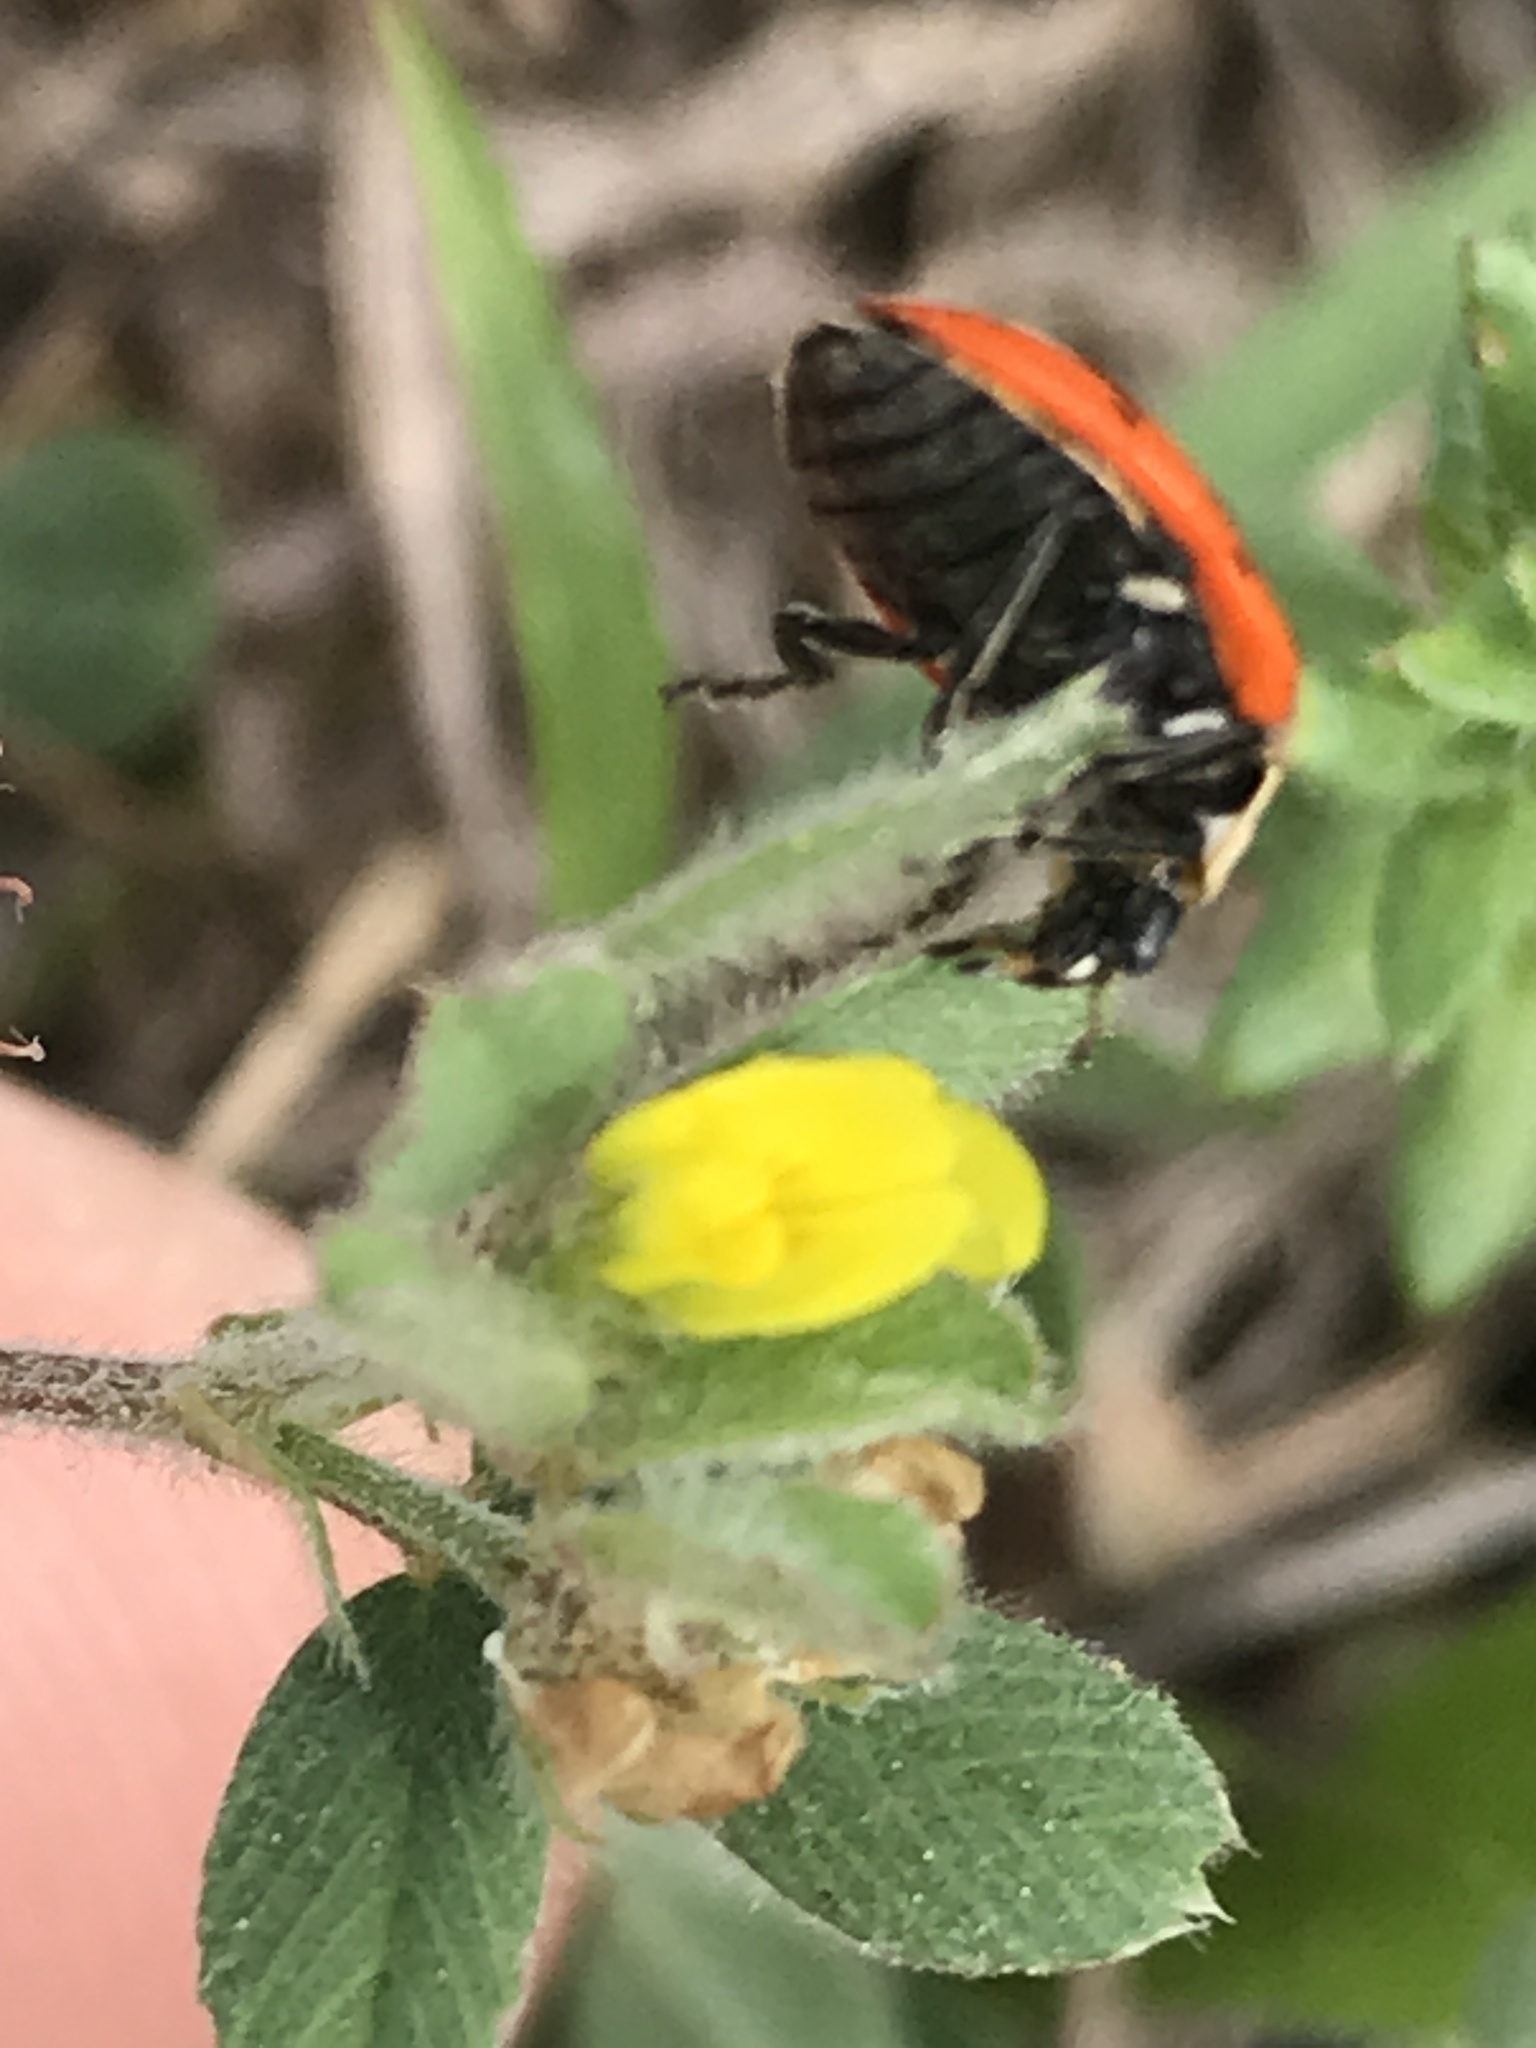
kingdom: Animalia
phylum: Arthropoda
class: Insecta
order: Coleoptera
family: Coccinellidae
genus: Hippodamia
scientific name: Hippodamia convergens
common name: Convergent lady beetle
